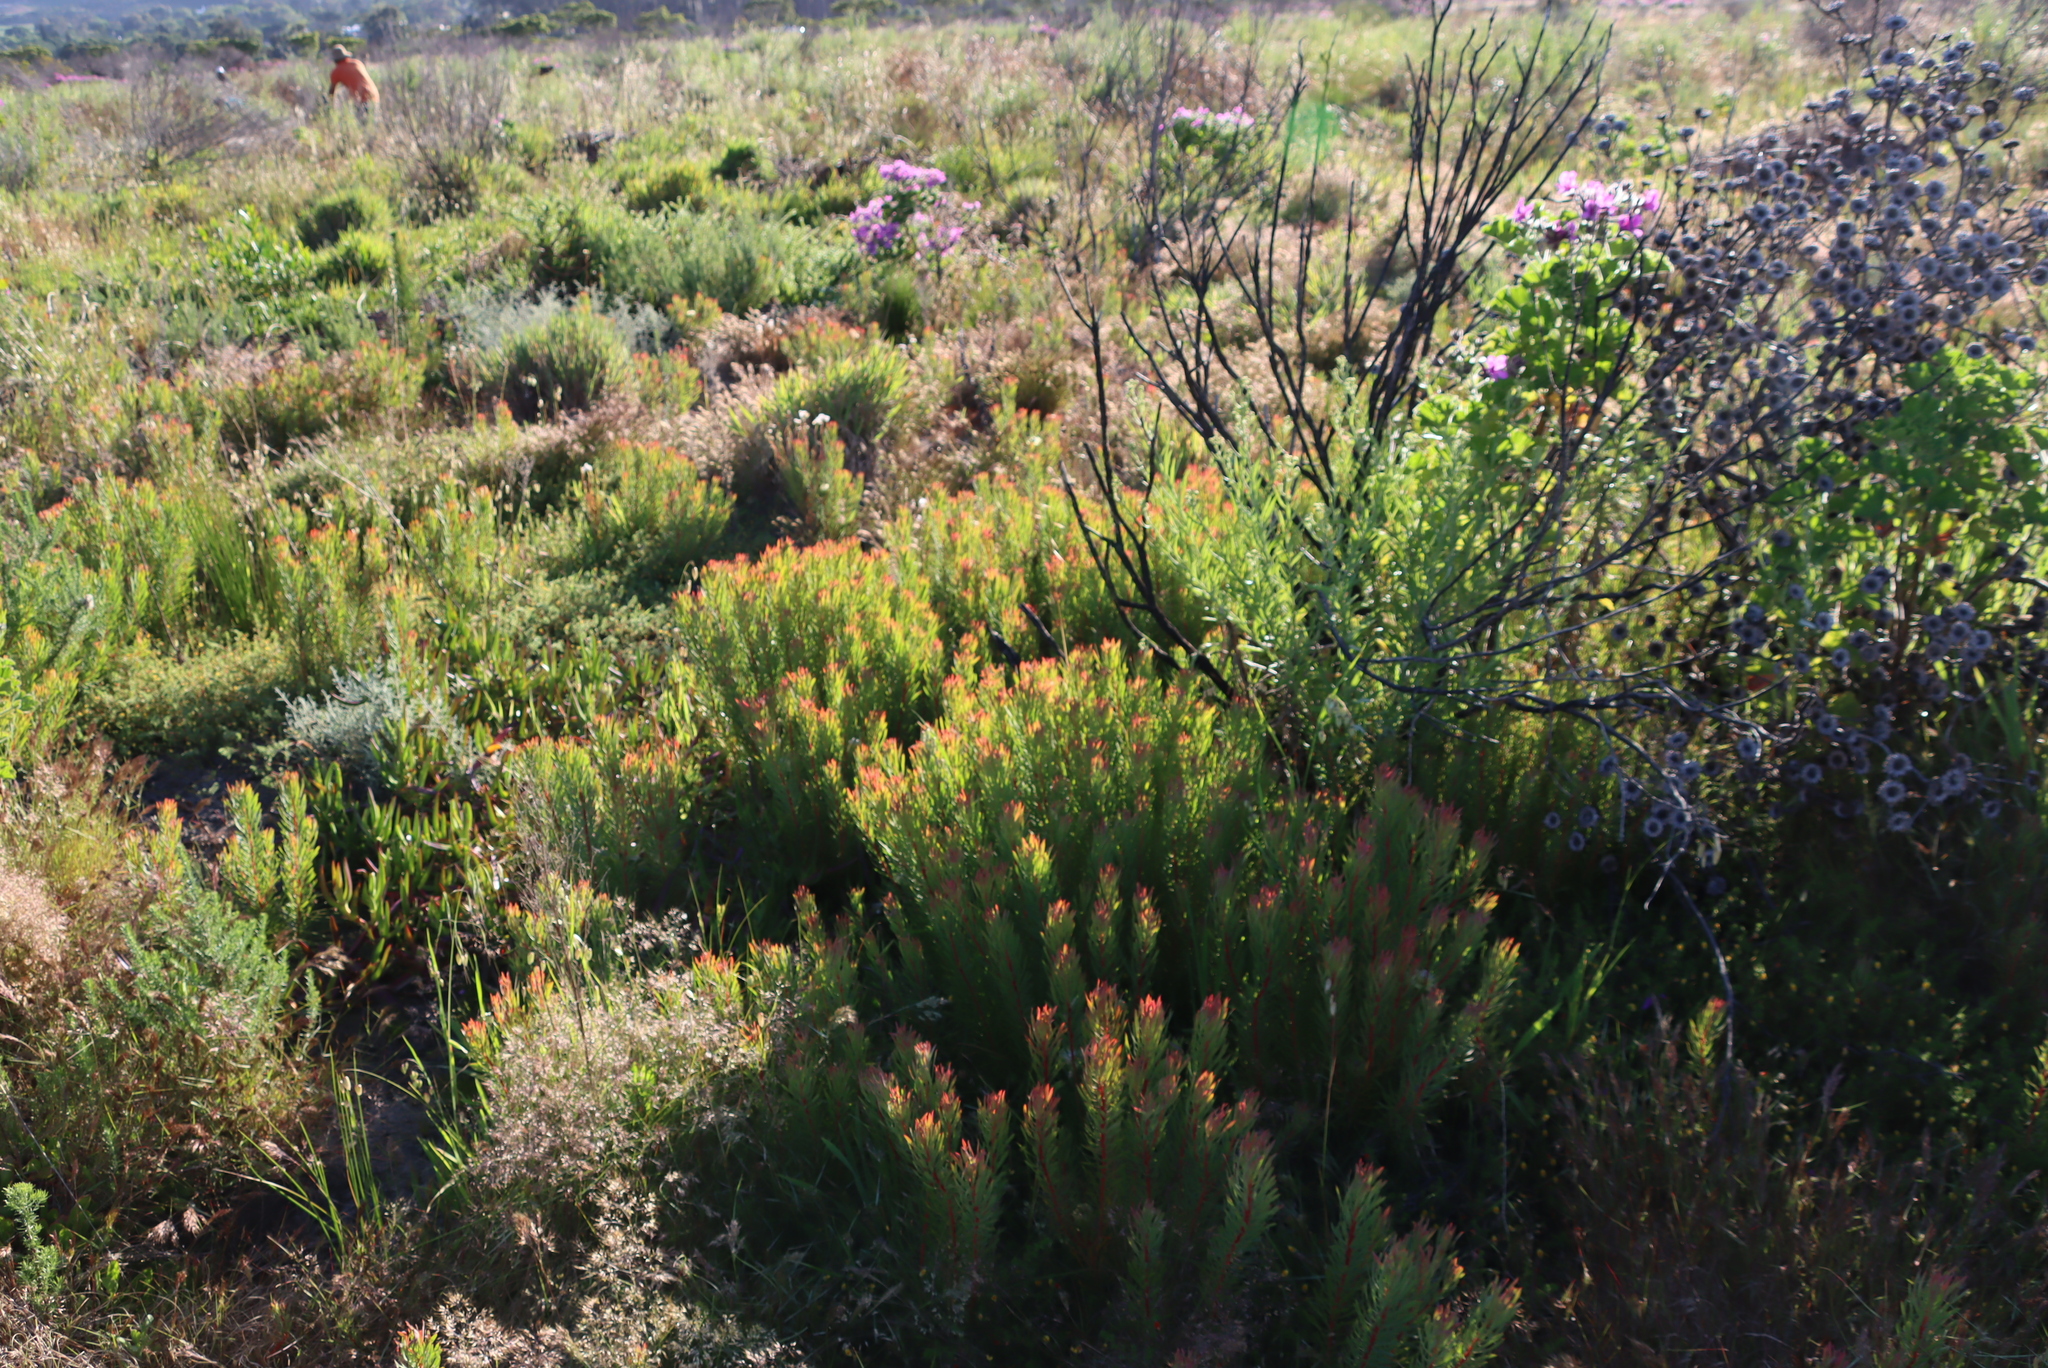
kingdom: Plantae
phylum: Tracheophyta
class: Magnoliopsida
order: Proteales
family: Proteaceae
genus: Protea
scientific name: Protea scolymocephala
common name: Thistle sugarbush
